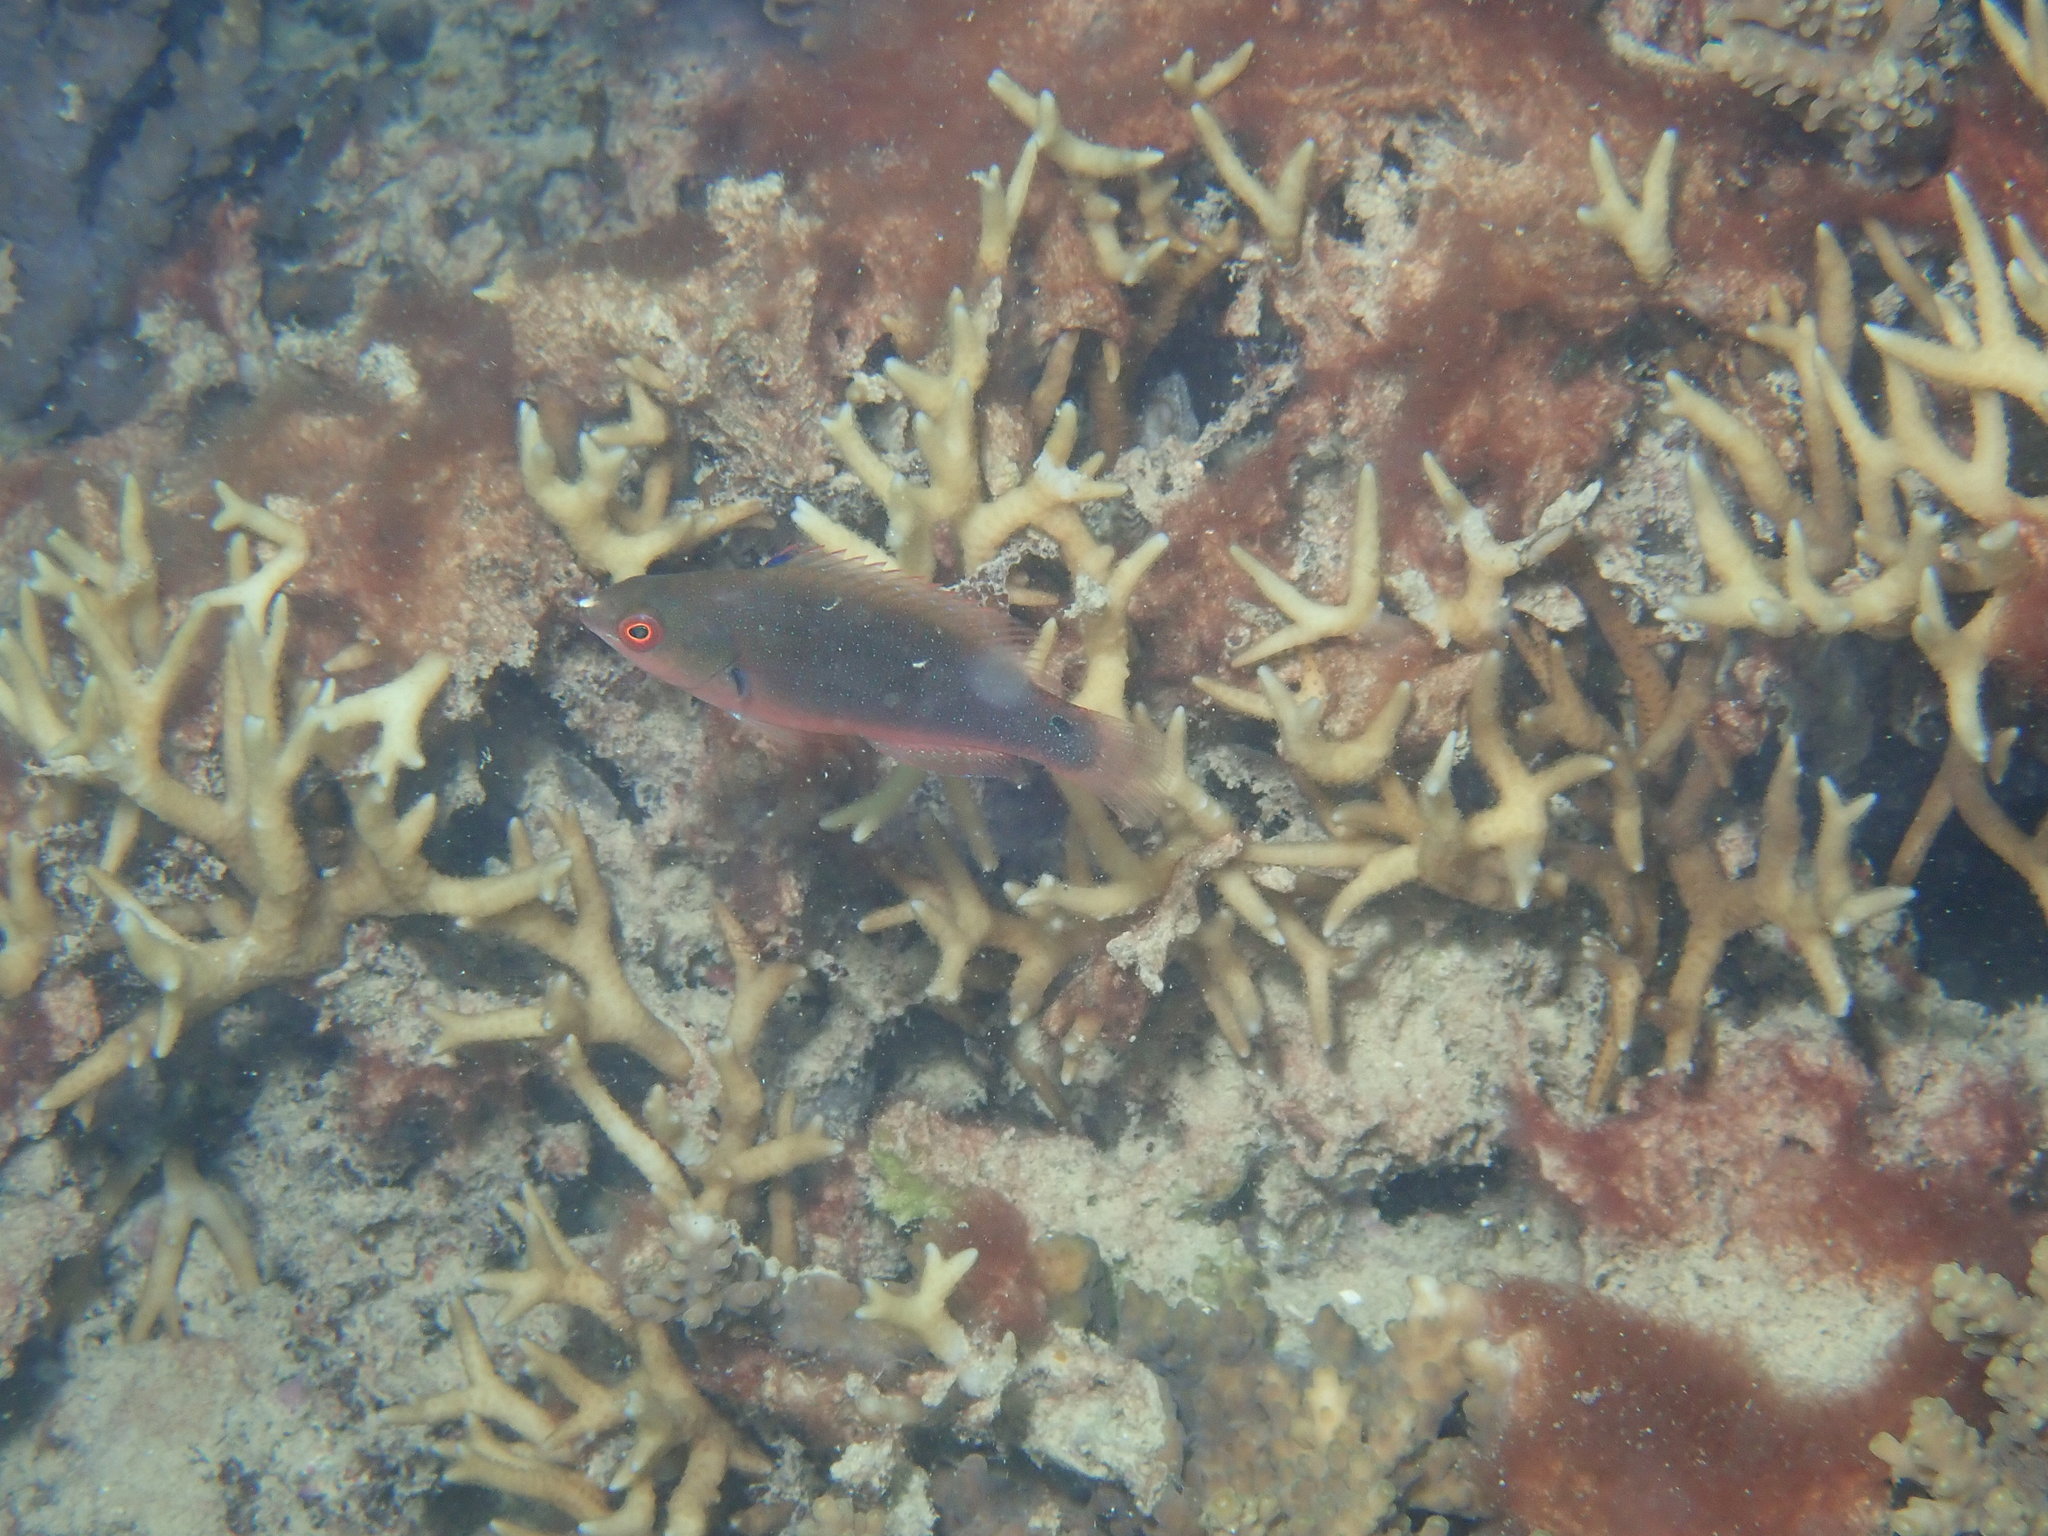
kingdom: Animalia
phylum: Chordata
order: Perciformes
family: Labridae
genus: Cirrhilabrus
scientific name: Cirrhilabrus punctatus
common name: Dotted wrasse
